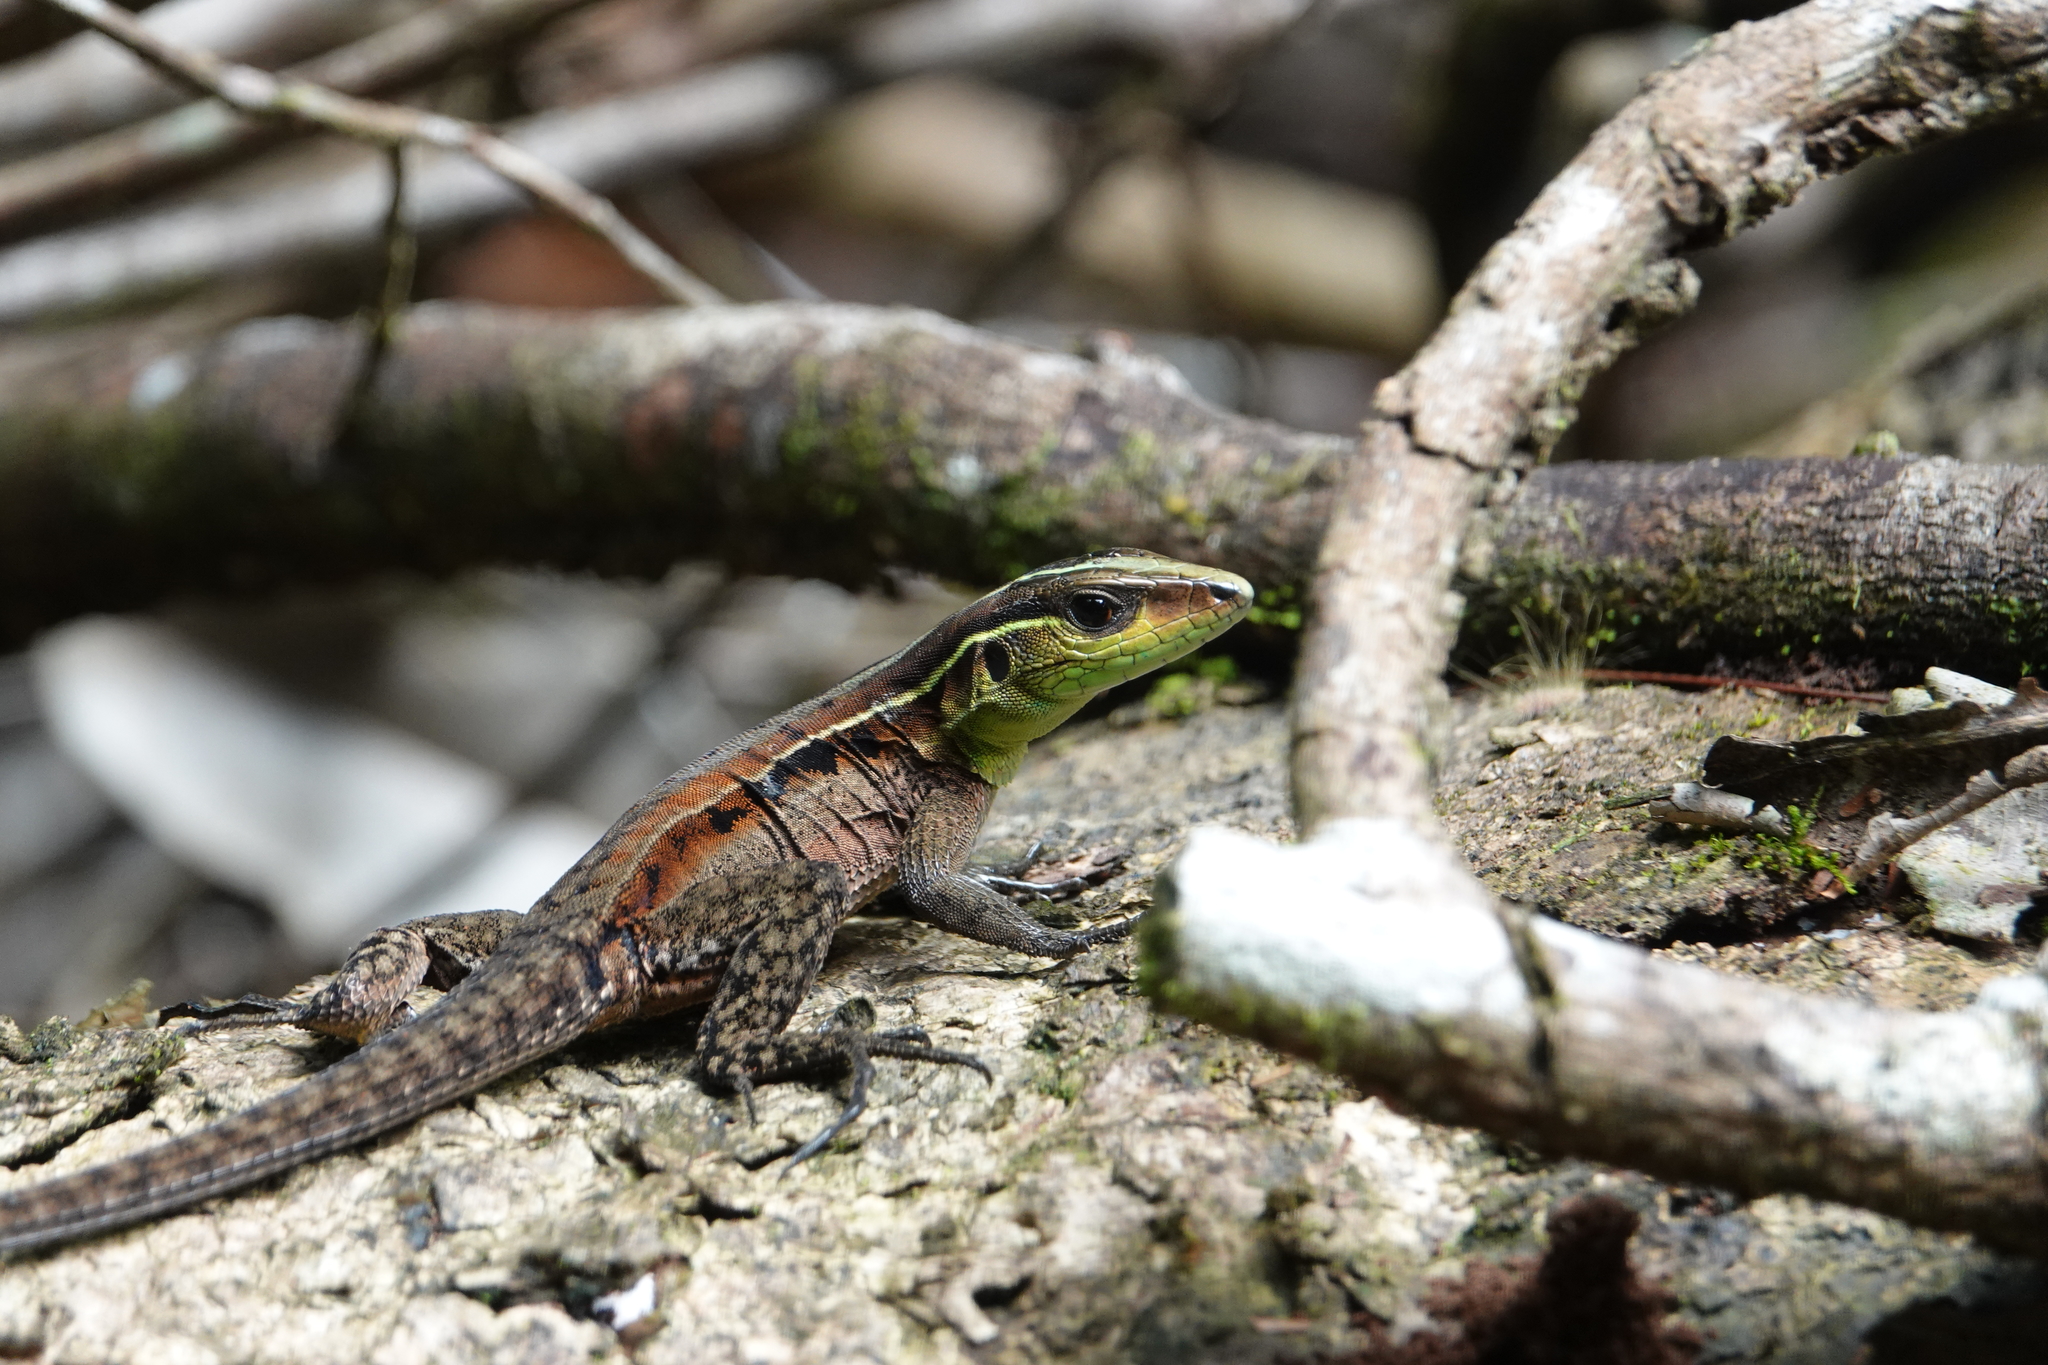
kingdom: Animalia
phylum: Chordata
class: Squamata
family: Teiidae
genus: Kentropyx
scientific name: Kentropyx calcarata
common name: Striped forest whiptail
